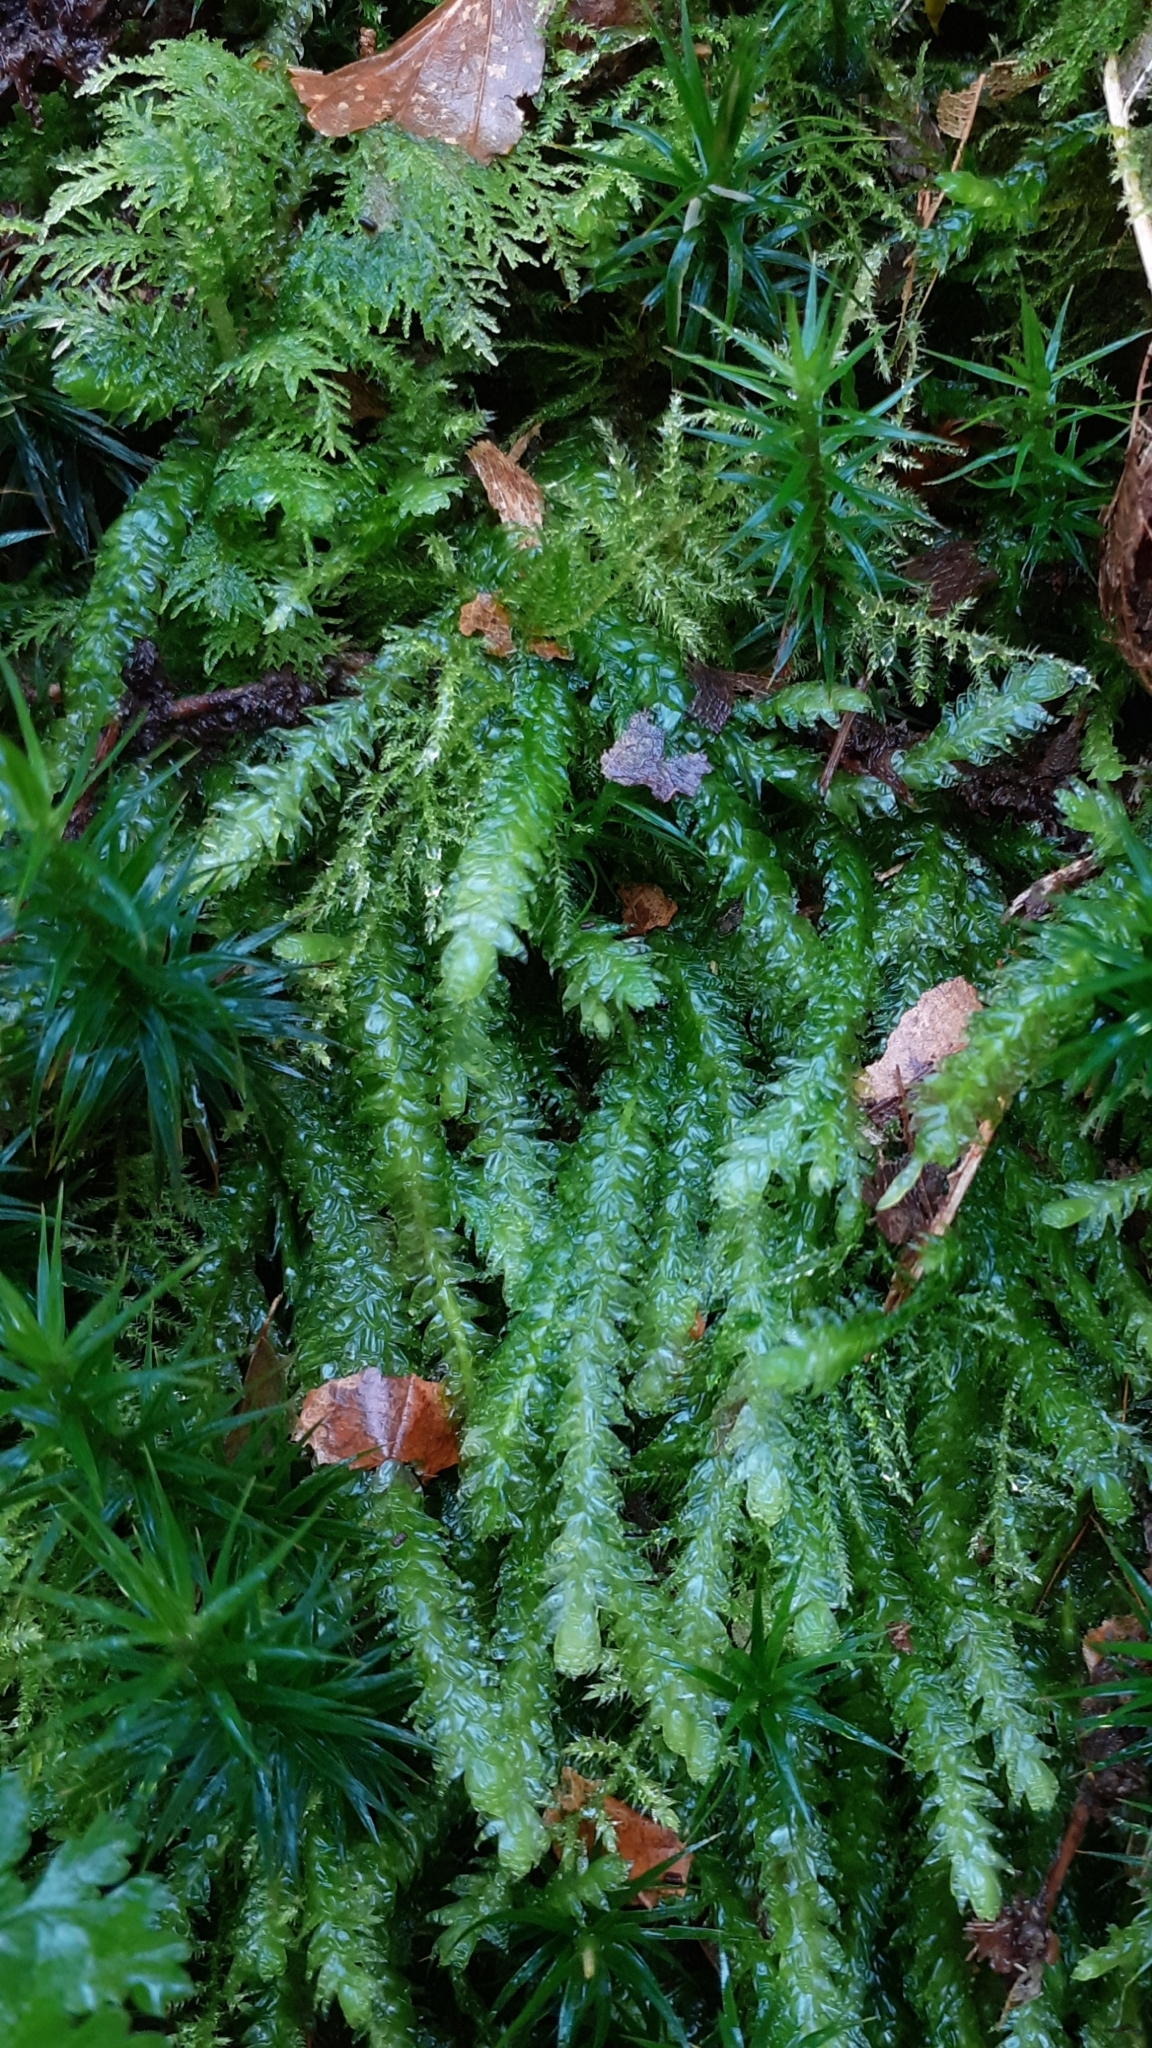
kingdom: Plantae
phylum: Bryophyta
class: Bryopsida
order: Hypnales
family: Plagiotheciaceae
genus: Plagiothecium
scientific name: Plagiothecium undulatum
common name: Waved silk-moss
